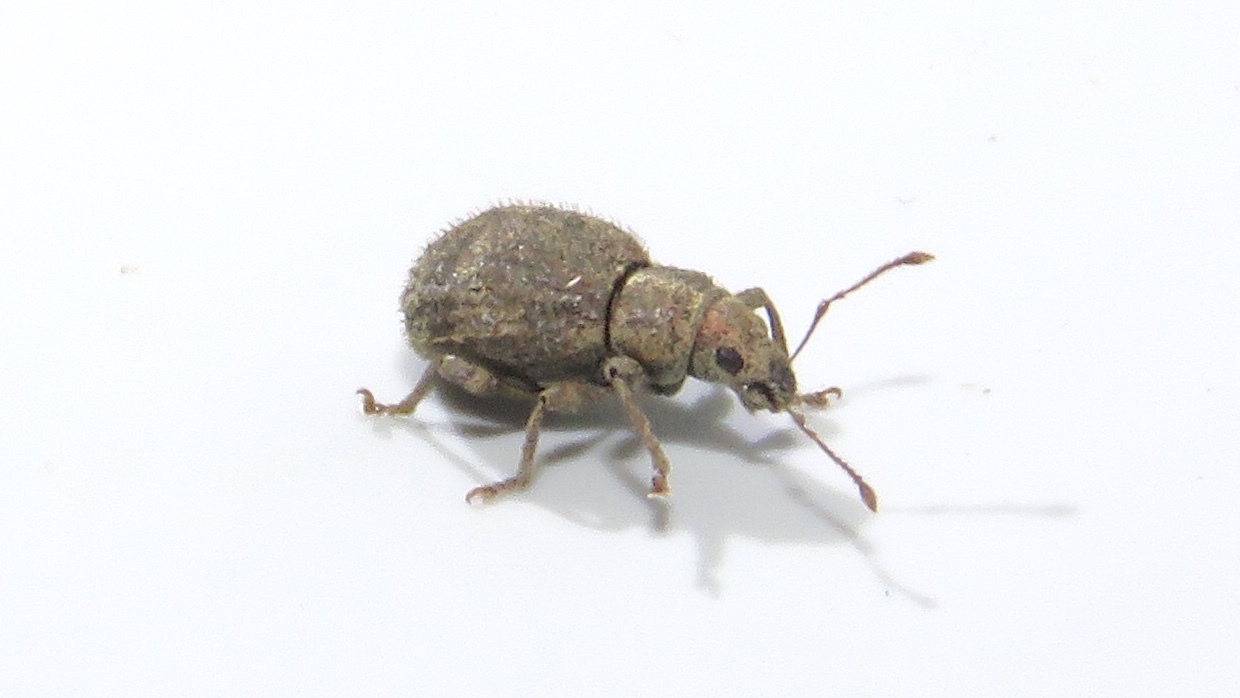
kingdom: Animalia
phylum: Arthropoda
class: Insecta
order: Coleoptera
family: Curculionidae
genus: Sciaphilus
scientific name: Sciaphilus asperatus
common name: Weevil
